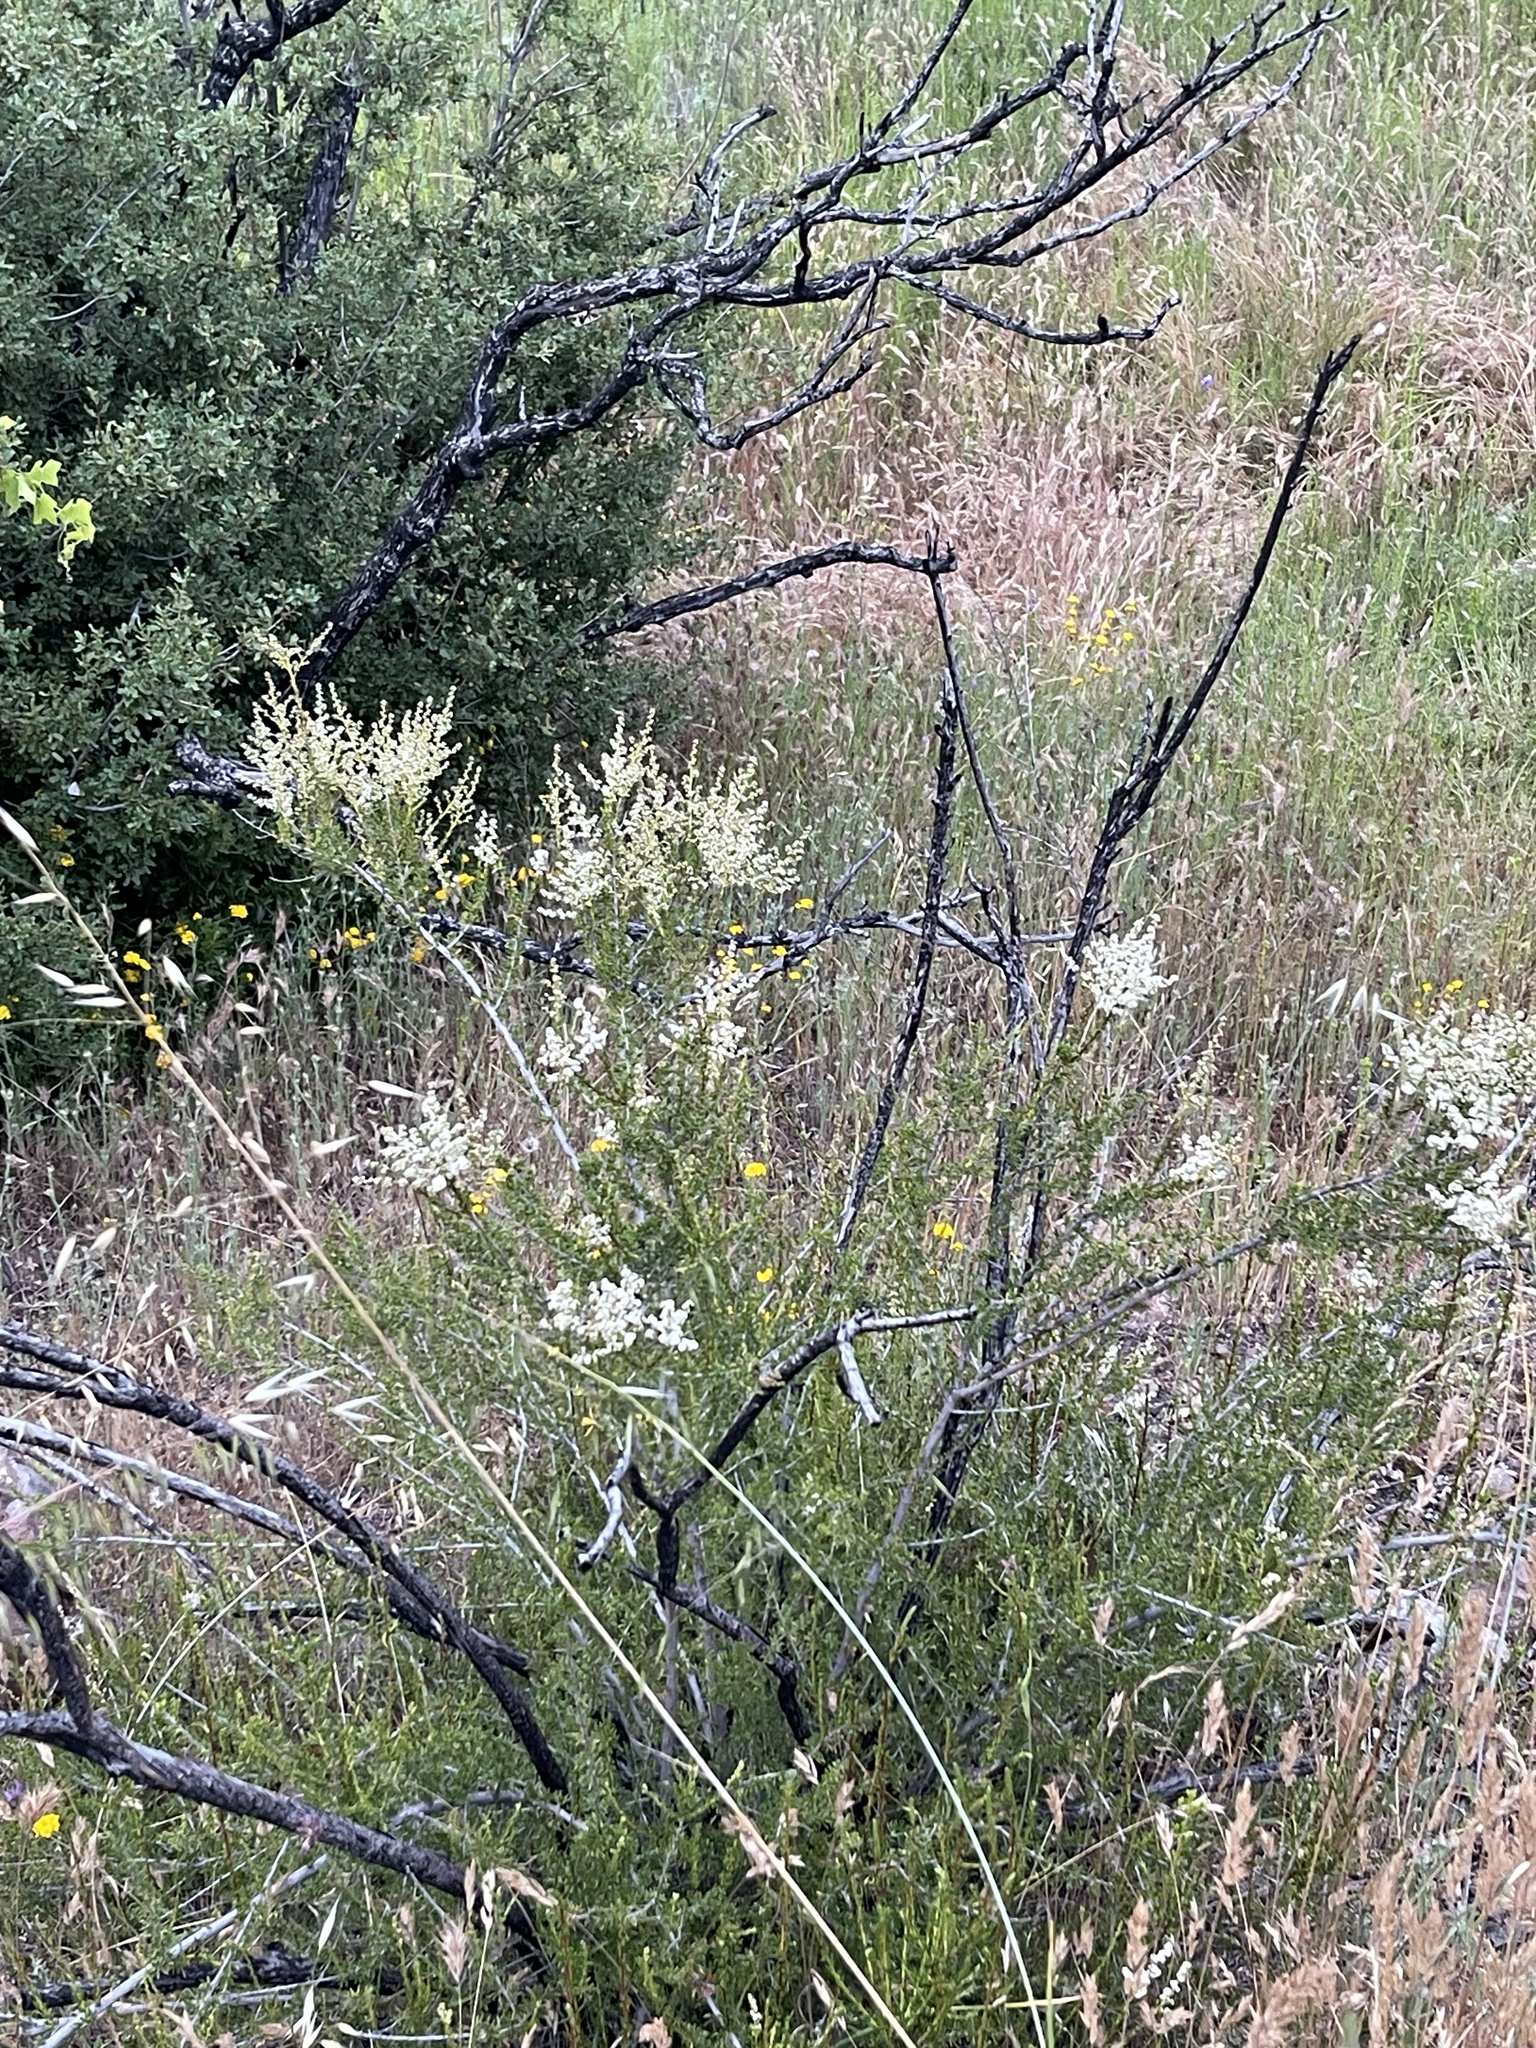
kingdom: Plantae
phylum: Tracheophyta
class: Magnoliopsida
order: Rosales
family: Rosaceae
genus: Adenostoma
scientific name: Adenostoma fasciculatum
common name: Chamise
